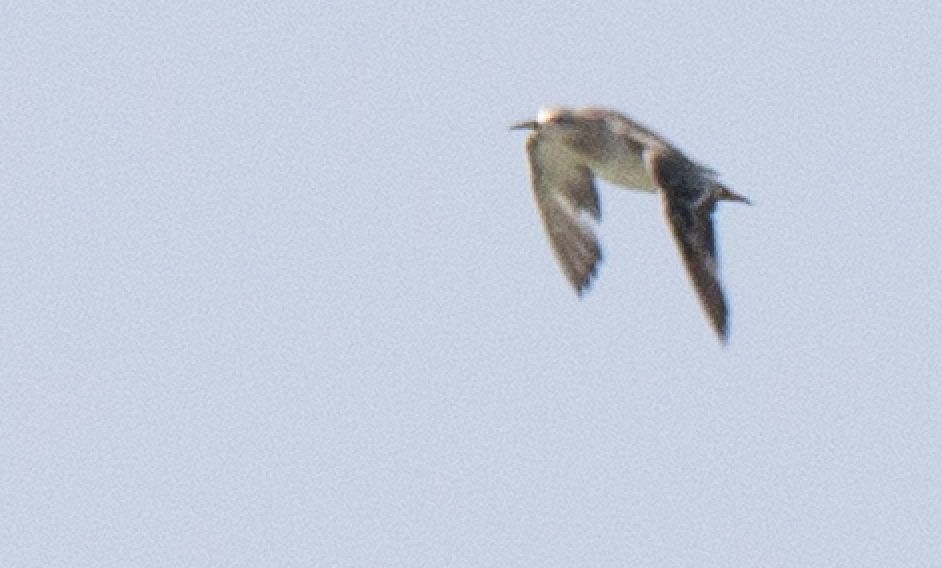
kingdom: Animalia
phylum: Chordata
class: Aves
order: Charadriiformes
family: Scolopacidae
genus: Calidris
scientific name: Calidris pugnax
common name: Ruff
